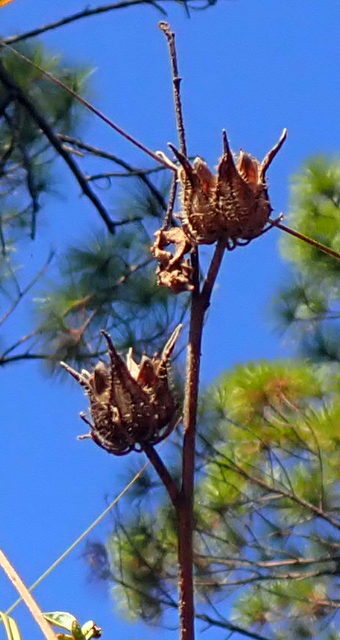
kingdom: Plantae
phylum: Tracheophyta
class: Magnoliopsida
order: Malvales
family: Malvaceae
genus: Hibiscus
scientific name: Hibiscus aculeatus
